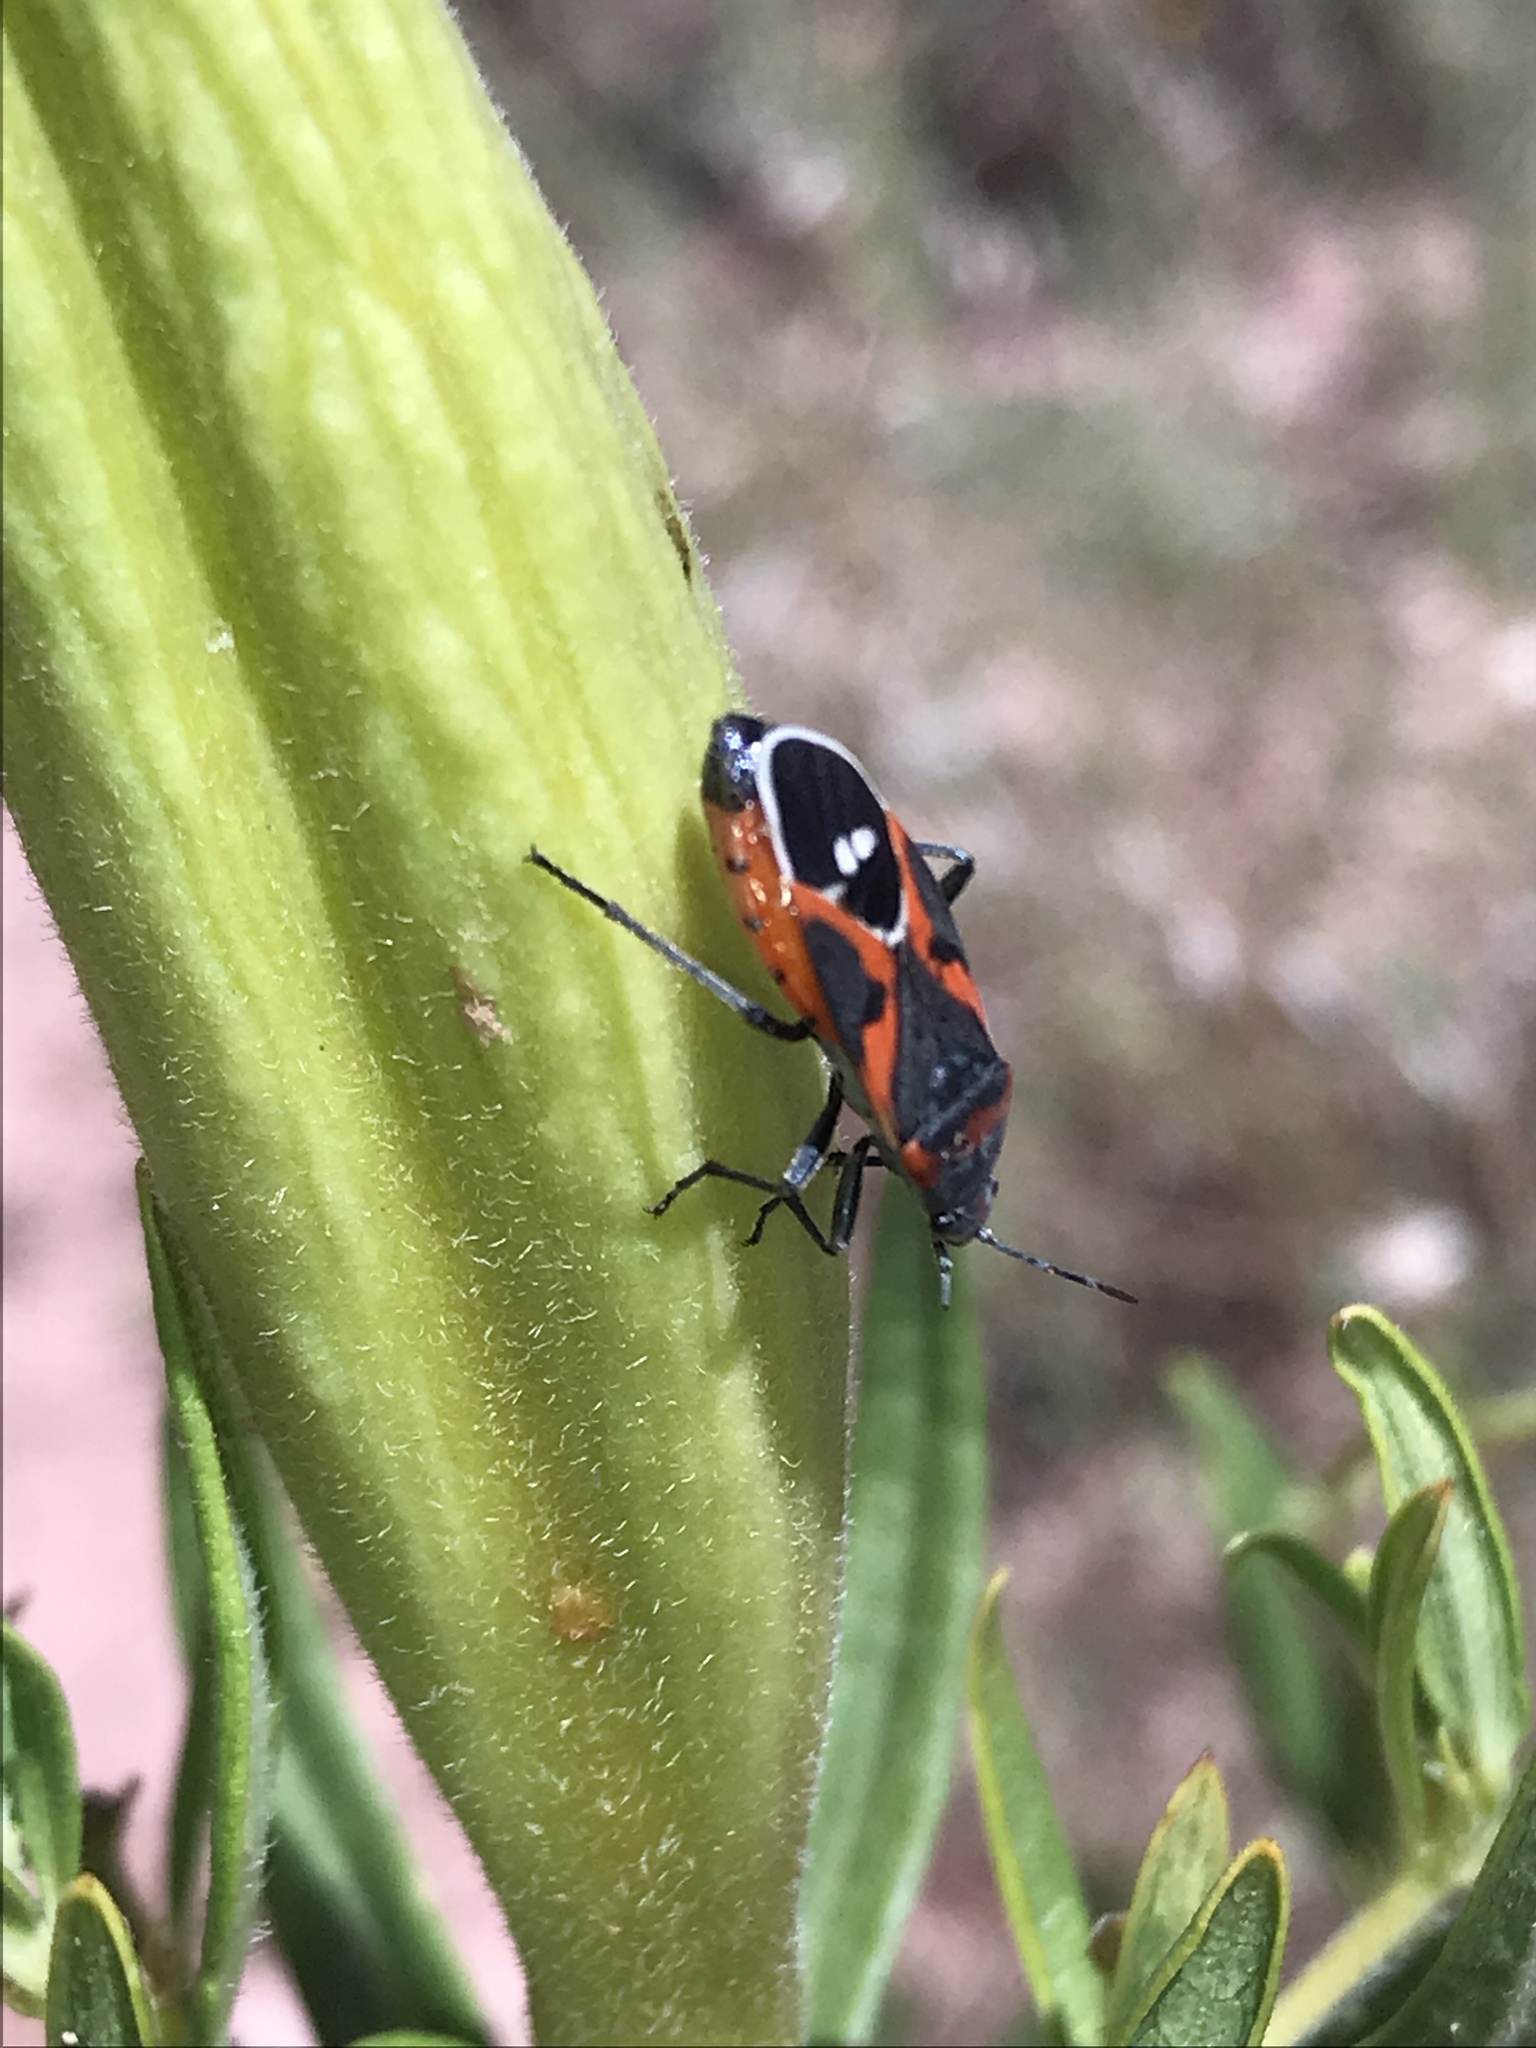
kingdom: Animalia
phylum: Arthropoda
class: Insecta
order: Hemiptera
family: Lygaeidae
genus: Lygaeus
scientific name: Lygaeus kalmii
